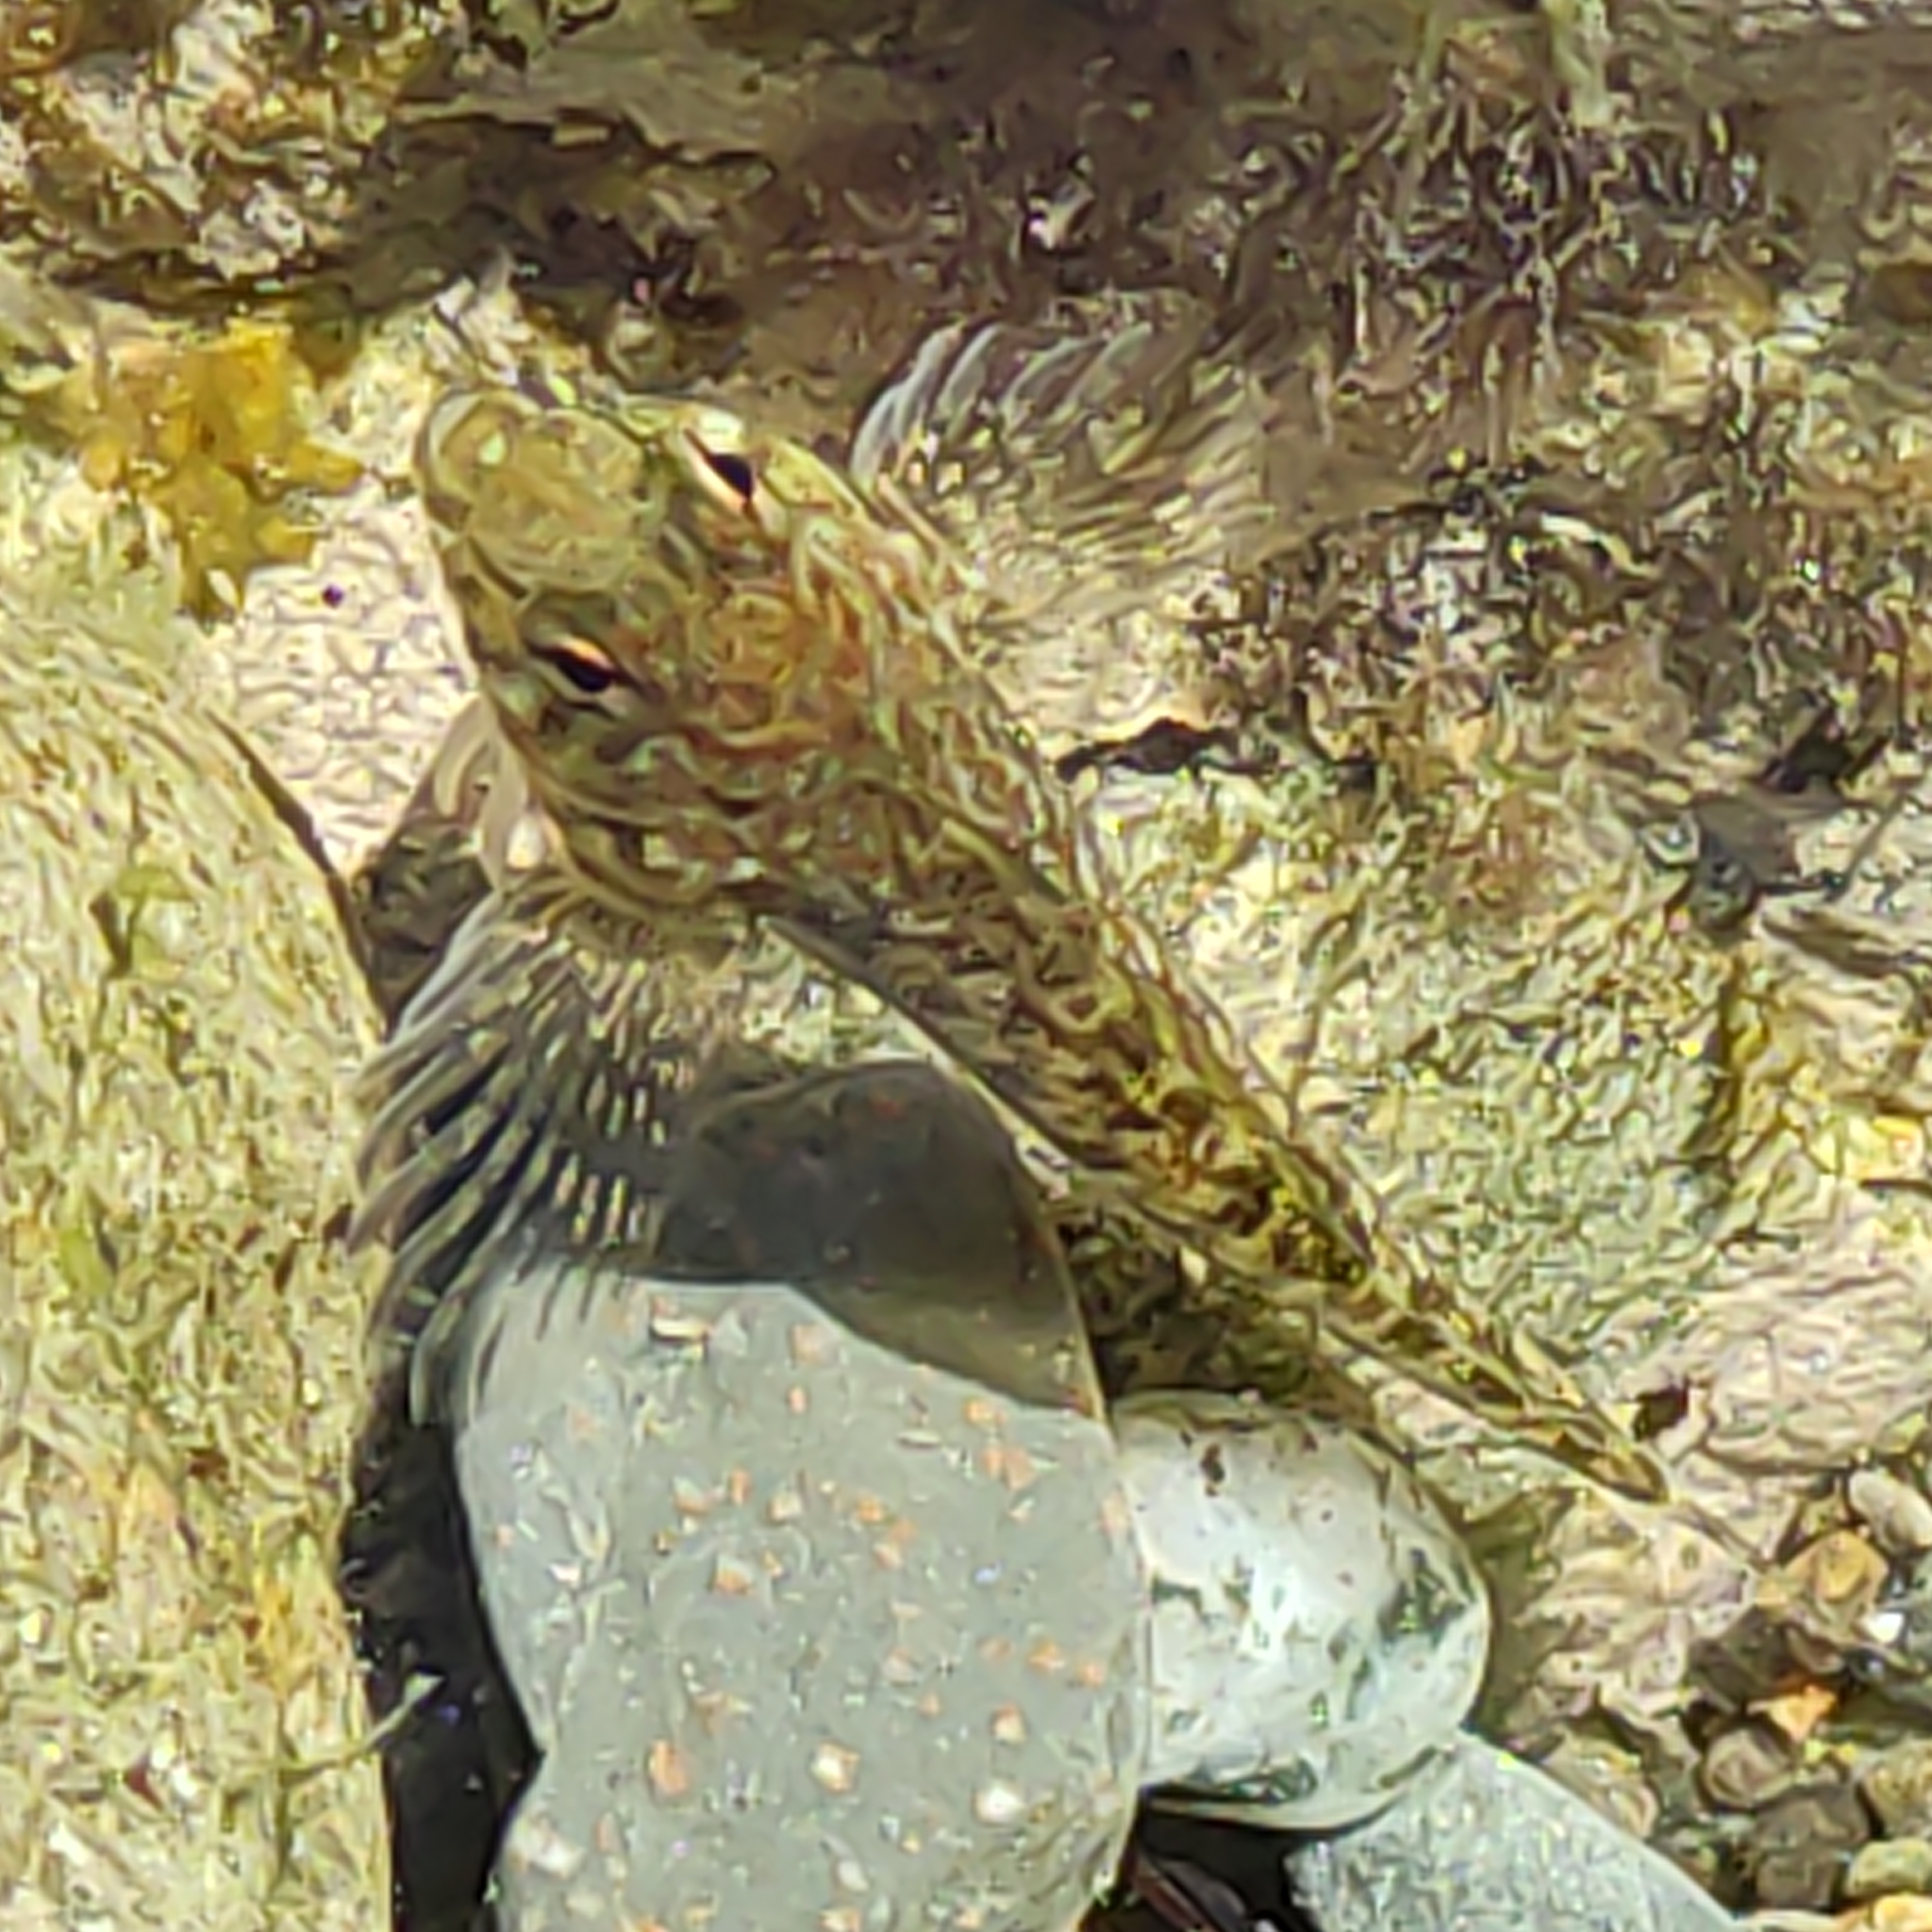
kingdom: Animalia
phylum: Chordata
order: Perciformes
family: Tripterygiidae
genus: Bellapiscis
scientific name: Bellapiscis medius
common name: Twister
